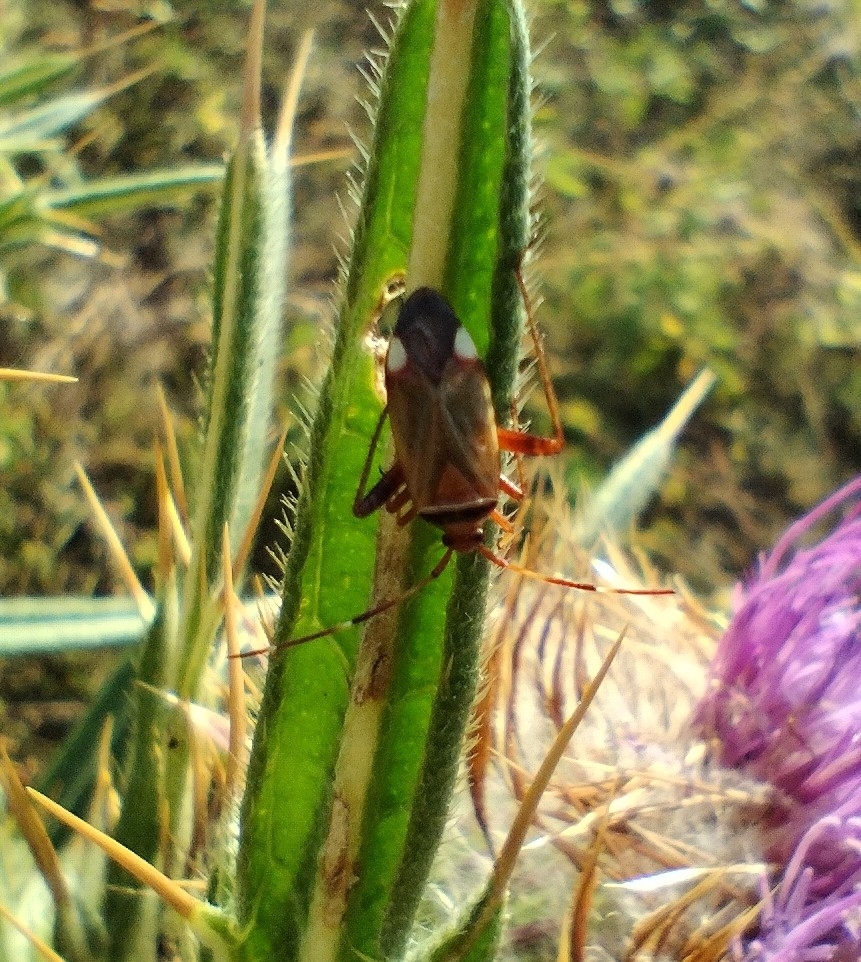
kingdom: Animalia
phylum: Arthropoda
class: Insecta
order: Hemiptera
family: Miridae
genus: Adelphocoris
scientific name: Adelphocoris vandalicus
